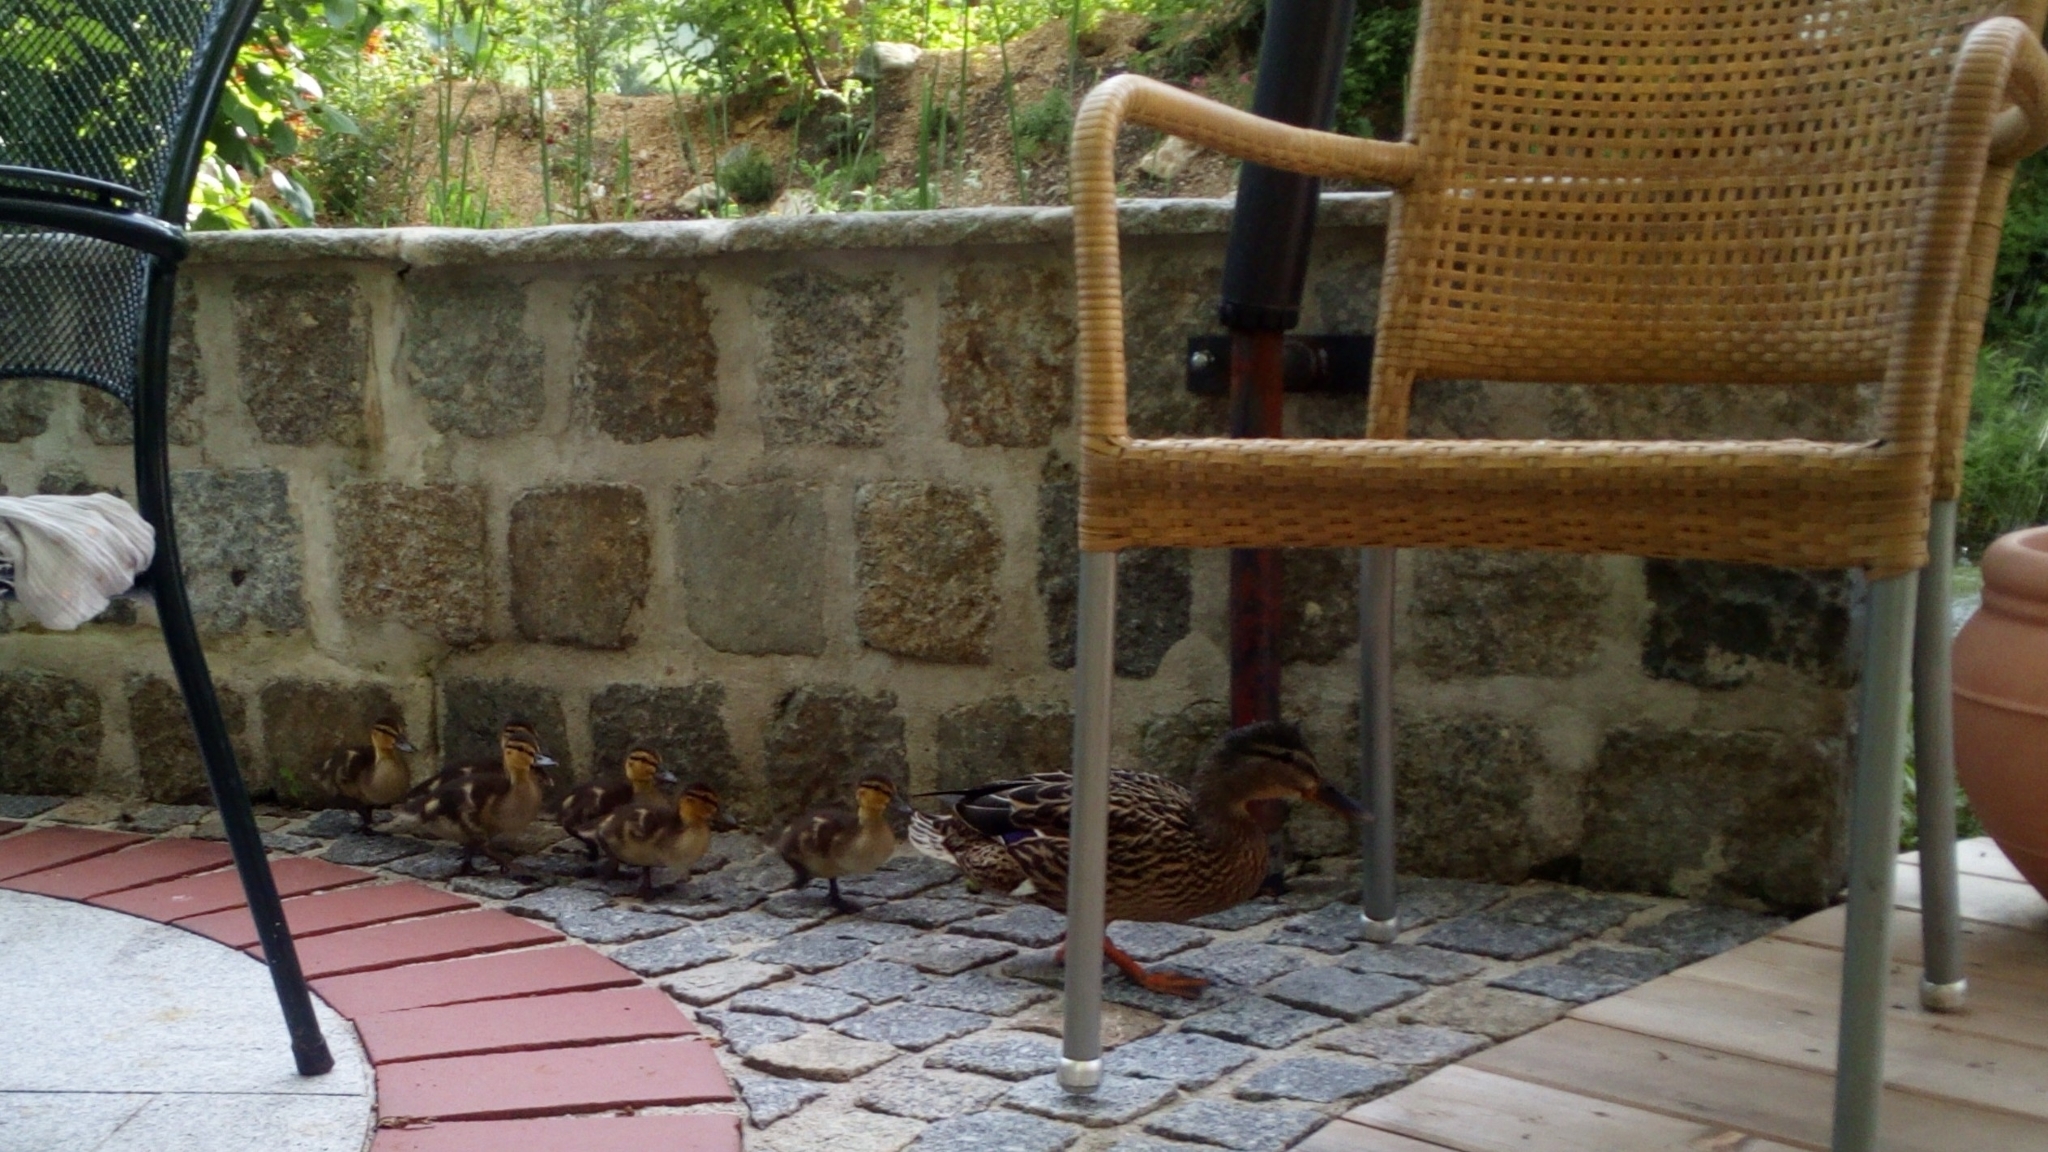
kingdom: Animalia
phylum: Chordata
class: Aves
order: Anseriformes
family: Anatidae
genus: Anas
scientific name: Anas platyrhynchos
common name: Mallard
